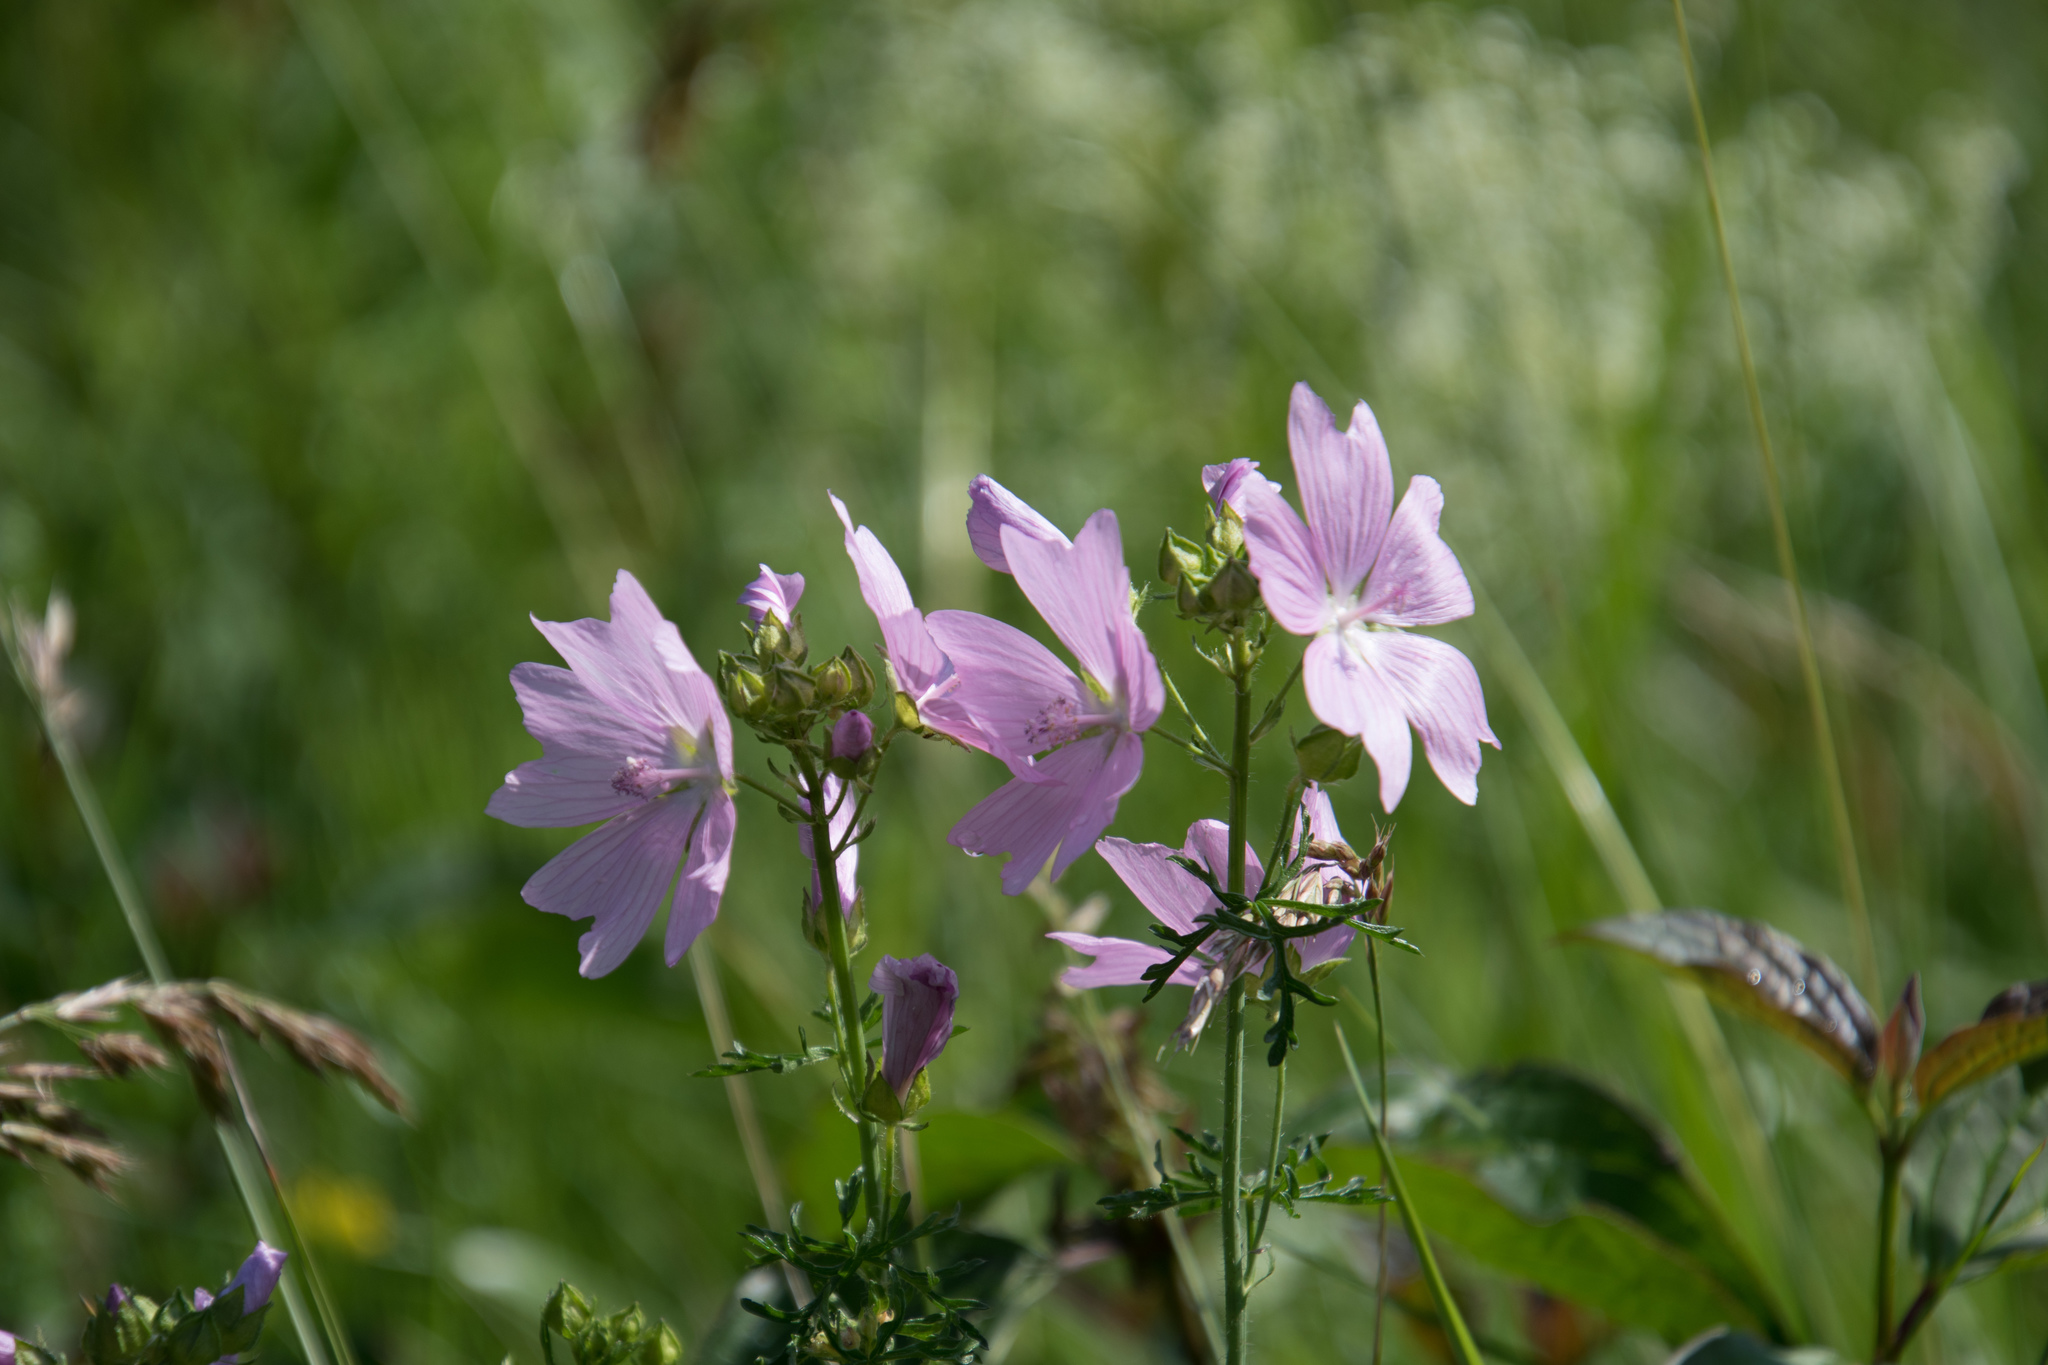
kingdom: Plantae
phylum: Tracheophyta
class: Magnoliopsida
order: Malvales
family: Malvaceae
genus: Malva
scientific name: Malva moschata
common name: Musk mallow
